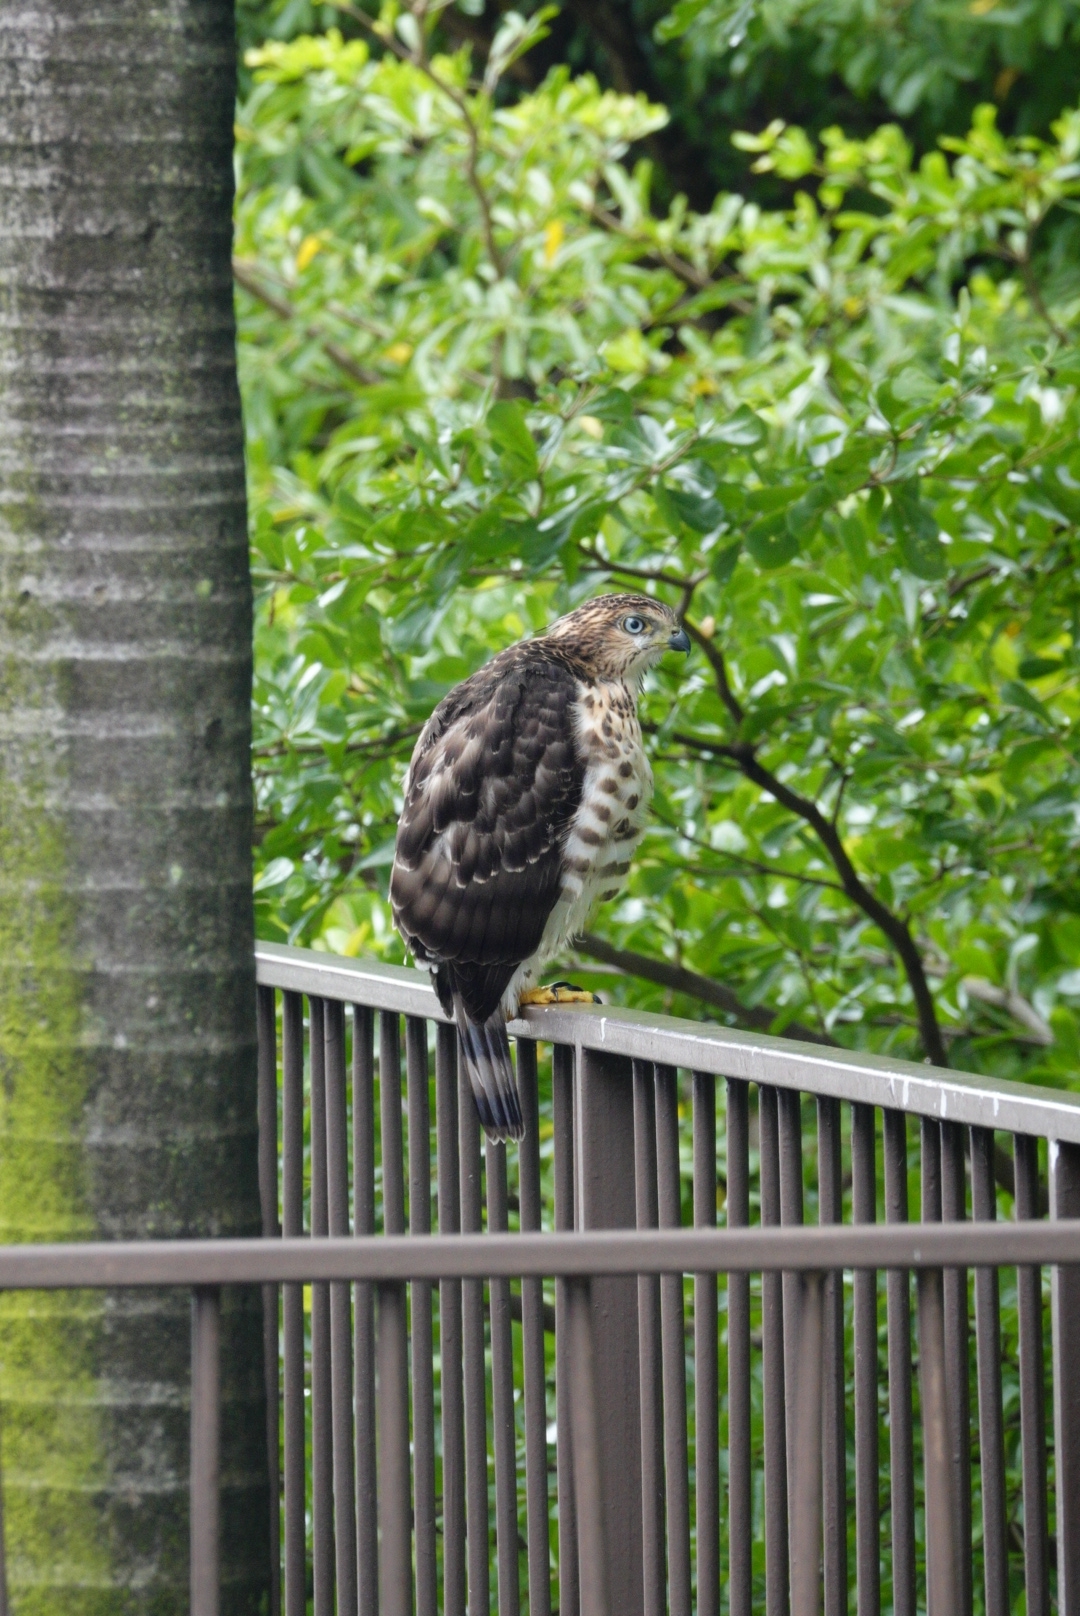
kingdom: Animalia
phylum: Chordata
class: Aves
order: Accipitriformes
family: Accipitridae
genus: Accipiter
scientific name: Accipiter trivirgatus
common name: Crested goshawk
